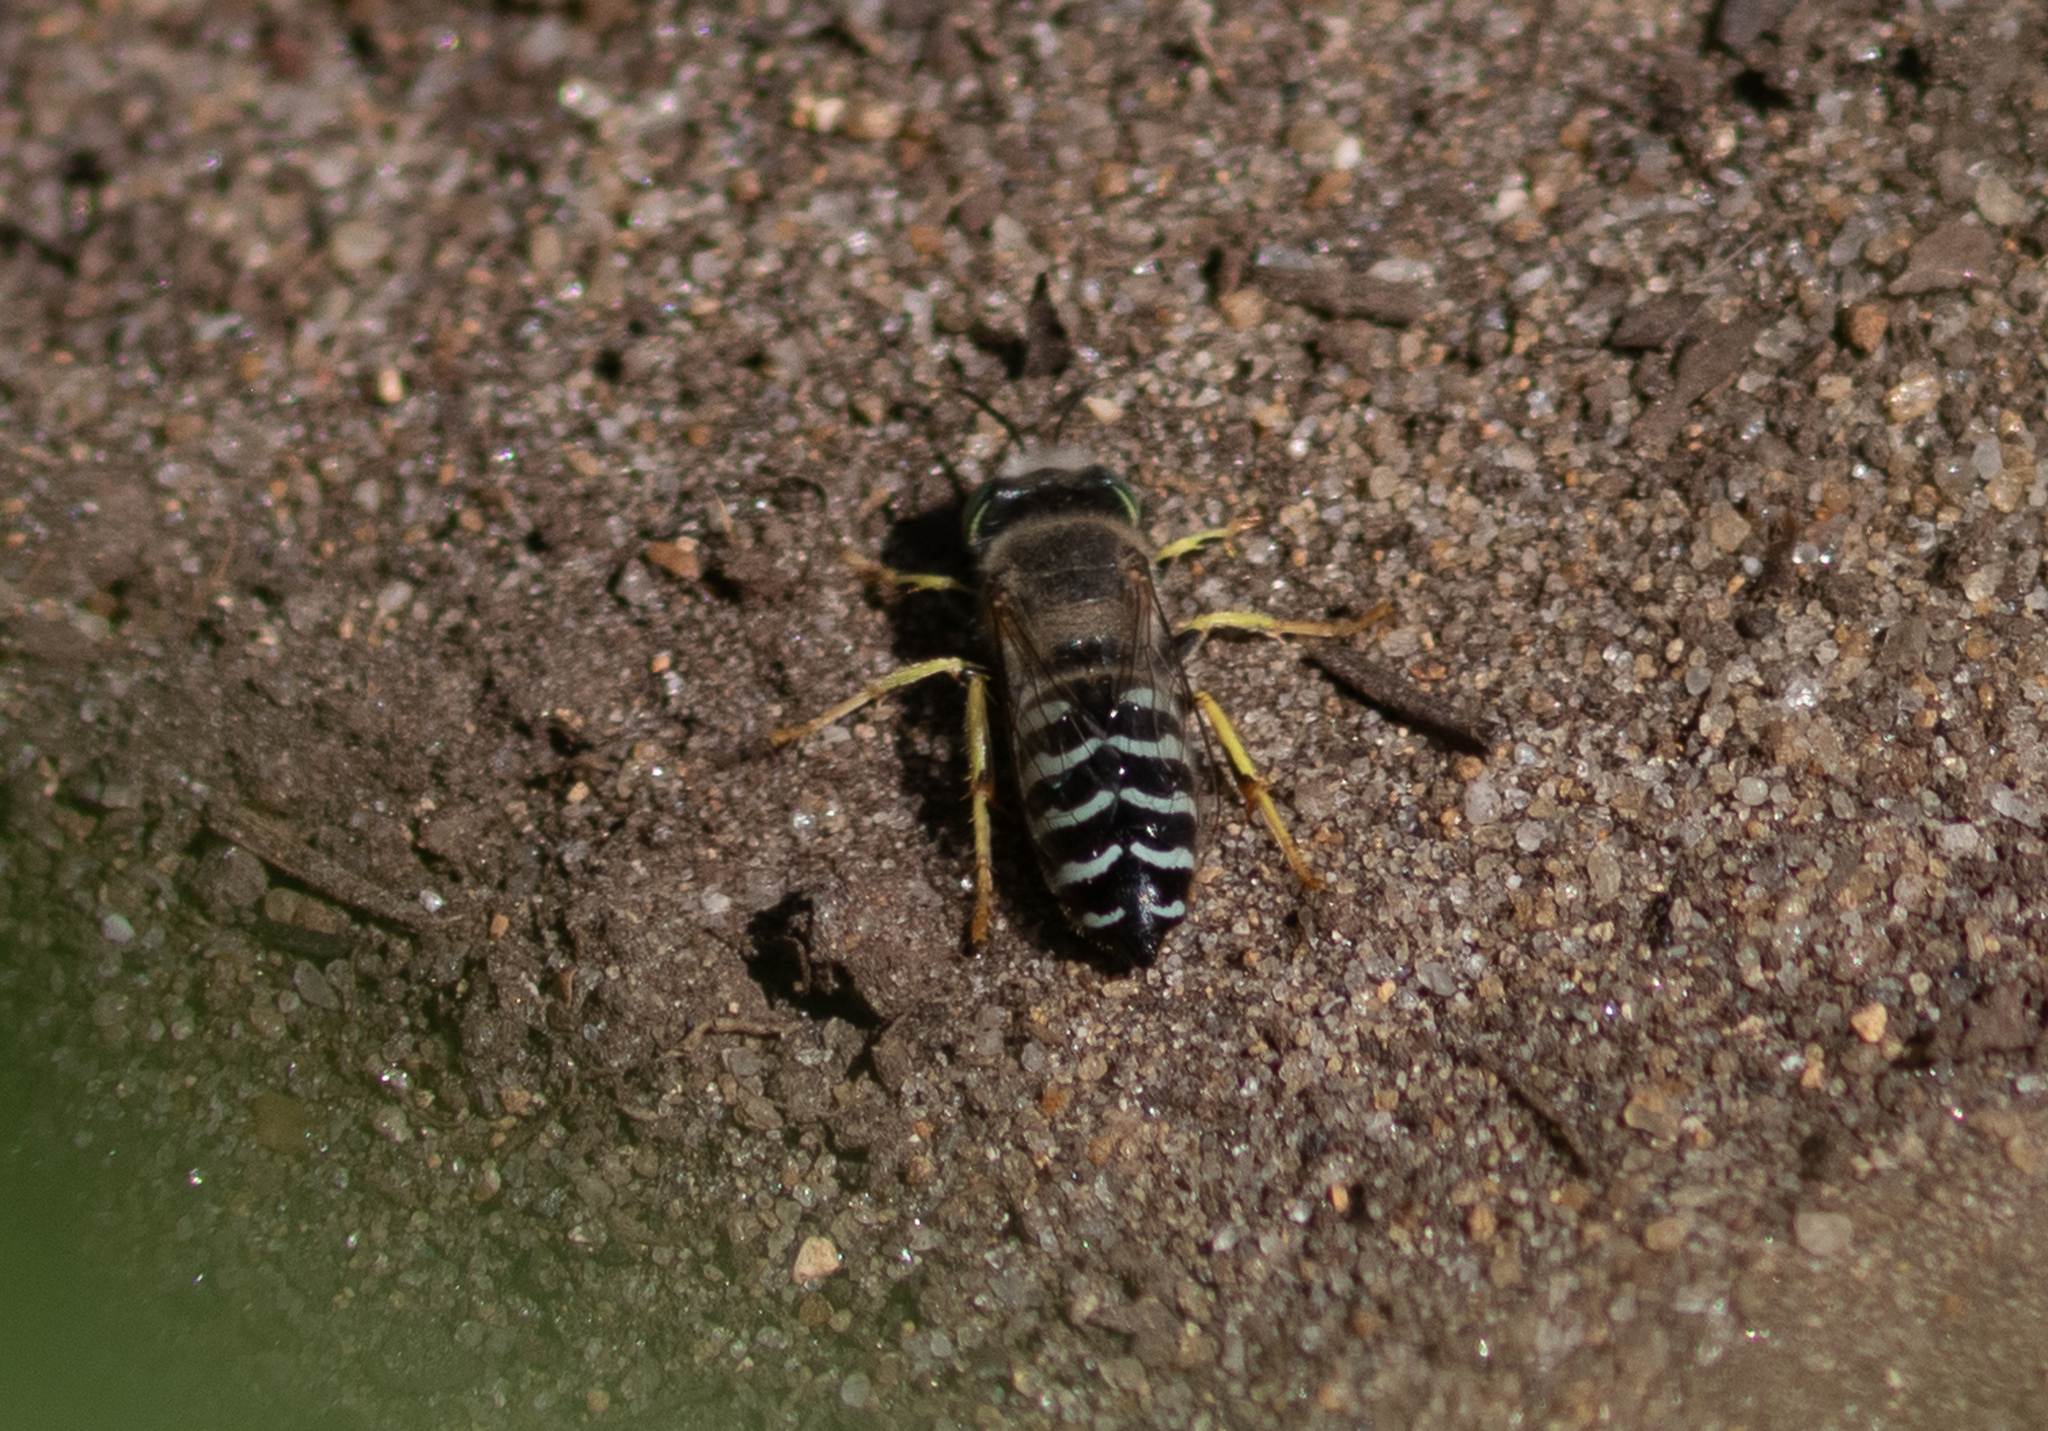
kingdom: Animalia
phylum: Arthropoda
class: Insecta
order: Hymenoptera
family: Crabronidae
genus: Bembix
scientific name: Bembix americana
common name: American sand wasp
